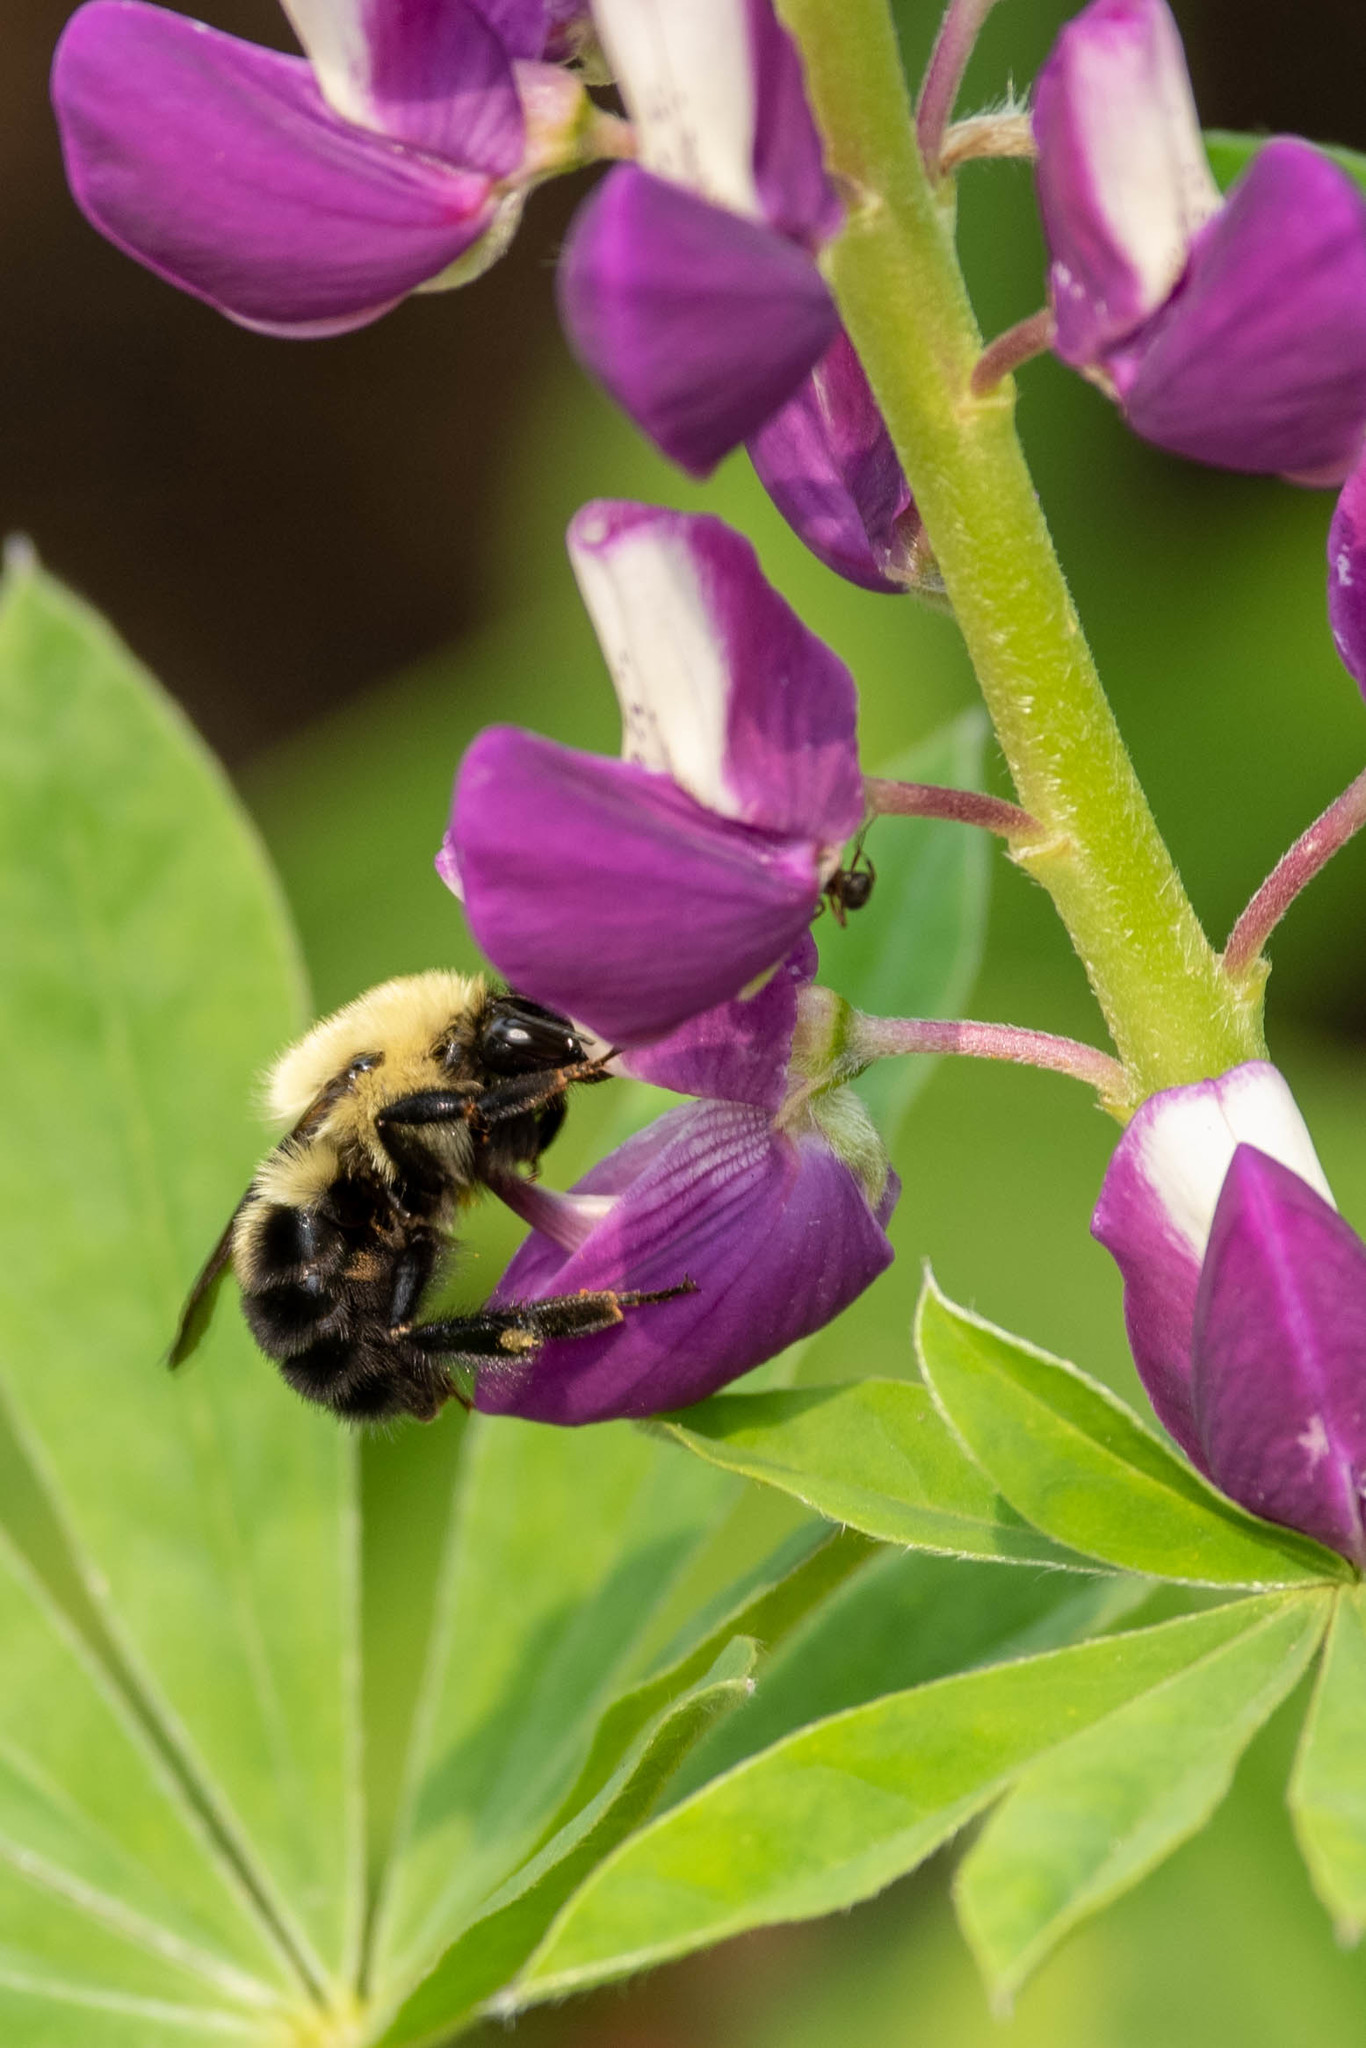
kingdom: Animalia
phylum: Arthropoda
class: Insecta
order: Hymenoptera
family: Apidae
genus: Bombus
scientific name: Bombus bimaculatus
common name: Two-spotted bumble bee
